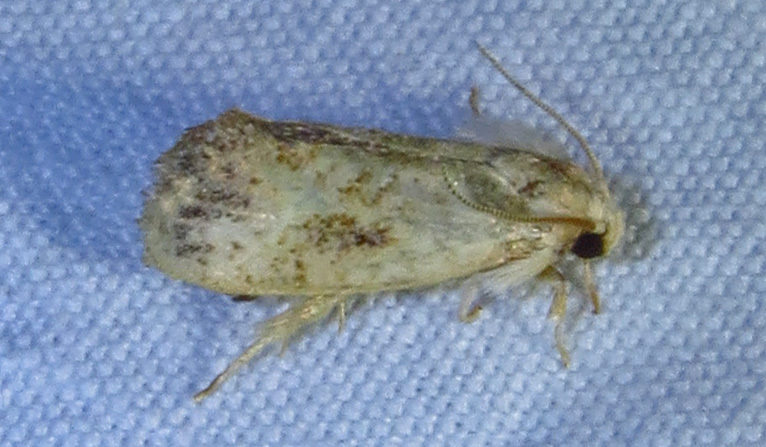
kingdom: Animalia
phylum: Arthropoda
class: Insecta
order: Lepidoptera
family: Tineidae
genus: Acrolophus
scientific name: Acrolophus mycetophagus
